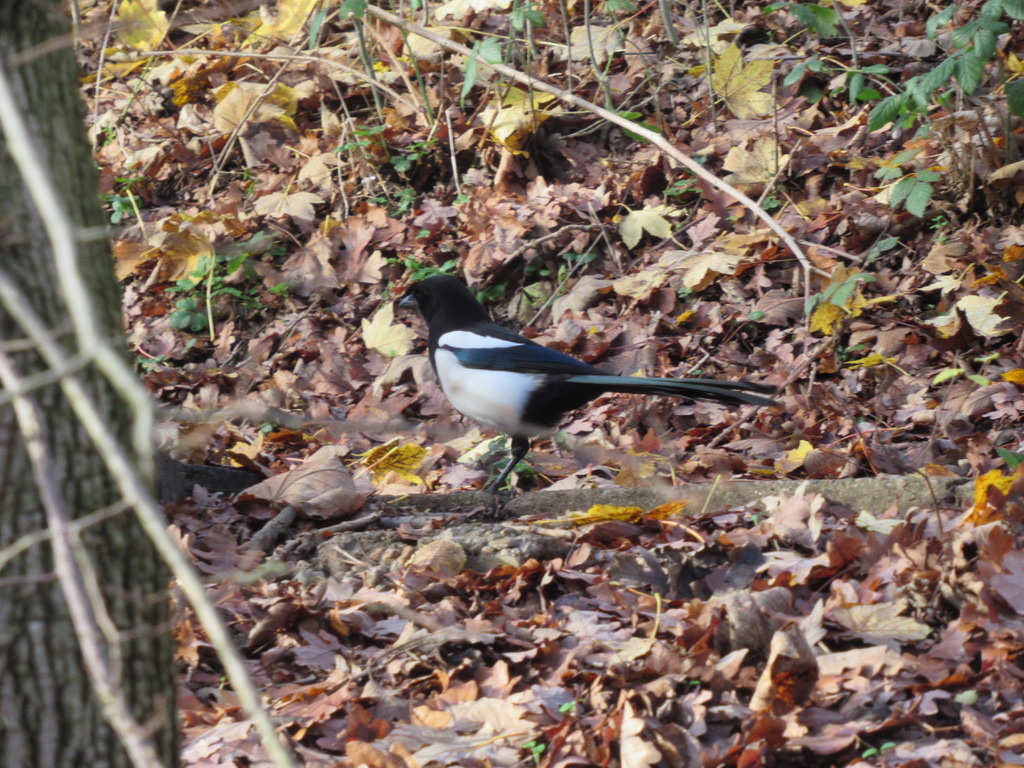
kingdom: Animalia
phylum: Chordata
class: Aves
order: Passeriformes
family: Corvidae
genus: Pica
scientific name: Pica pica
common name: Eurasian magpie
